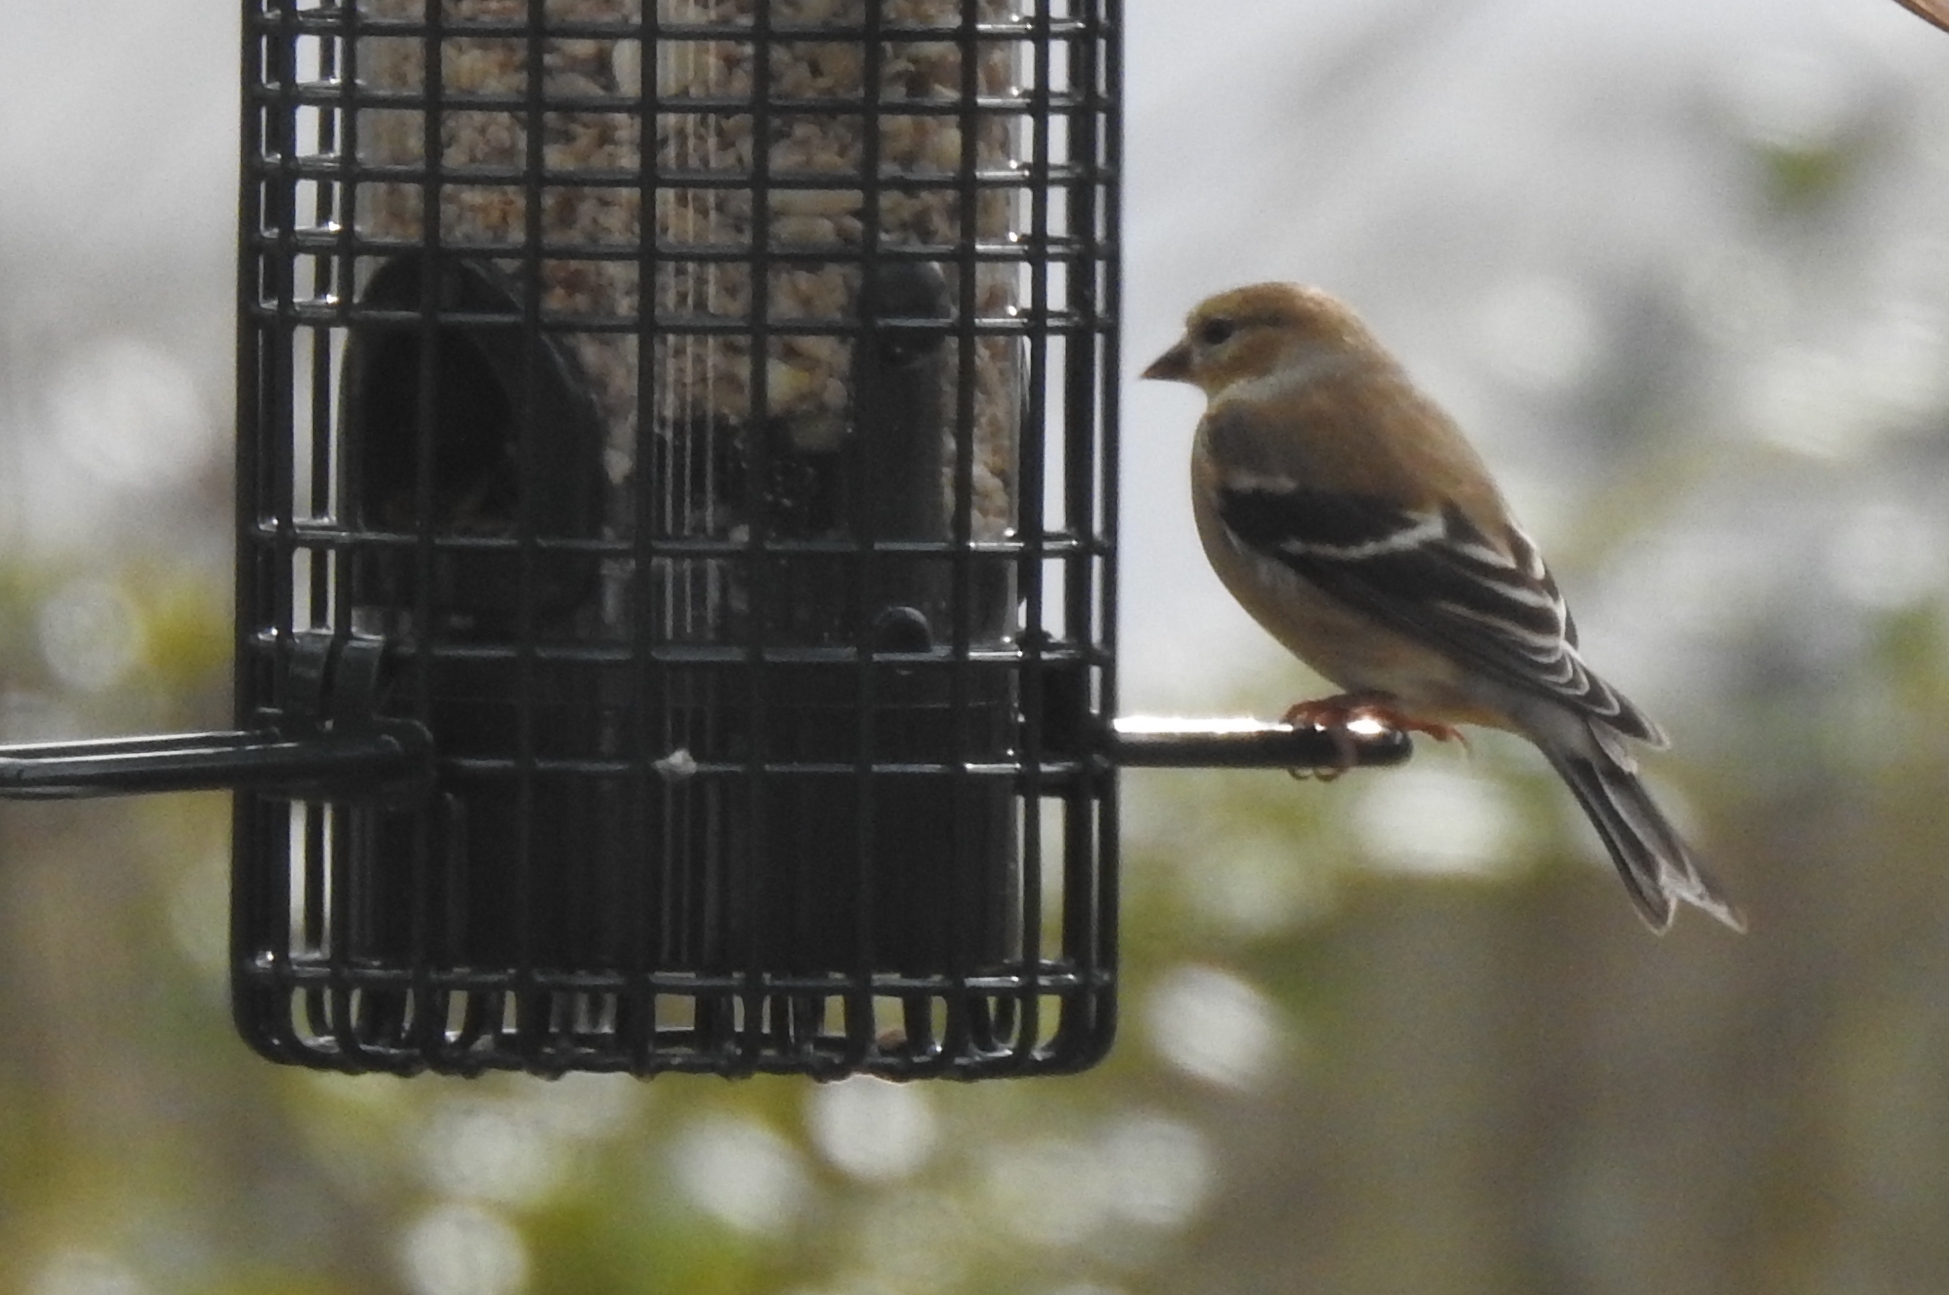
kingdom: Animalia
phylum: Chordata
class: Aves
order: Passeriformes
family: Fringillidae
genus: Spinus
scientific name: Spinus tristis
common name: American goldfinch
